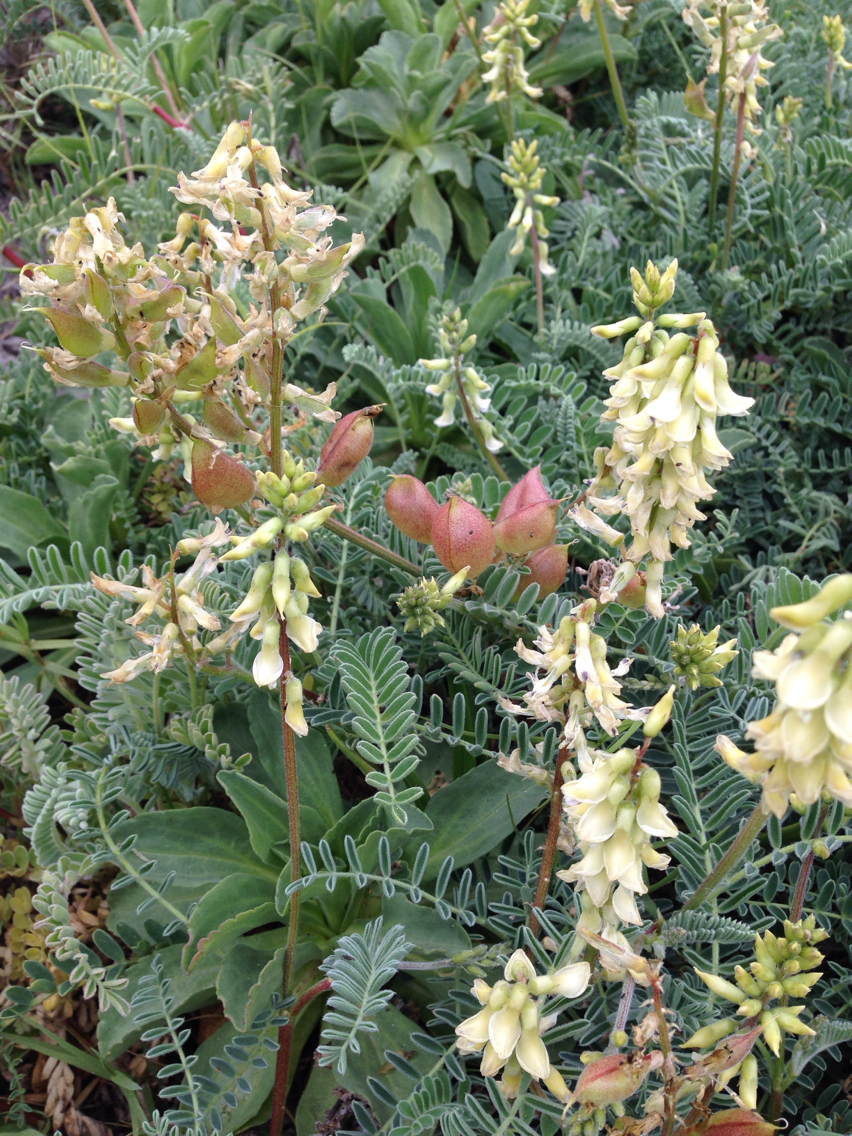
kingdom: Plantae
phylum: Tracheophyta
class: Magnoliopsida
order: Fabales
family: Fabaceae
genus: Astragalus
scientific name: Astragalus nuttallii
